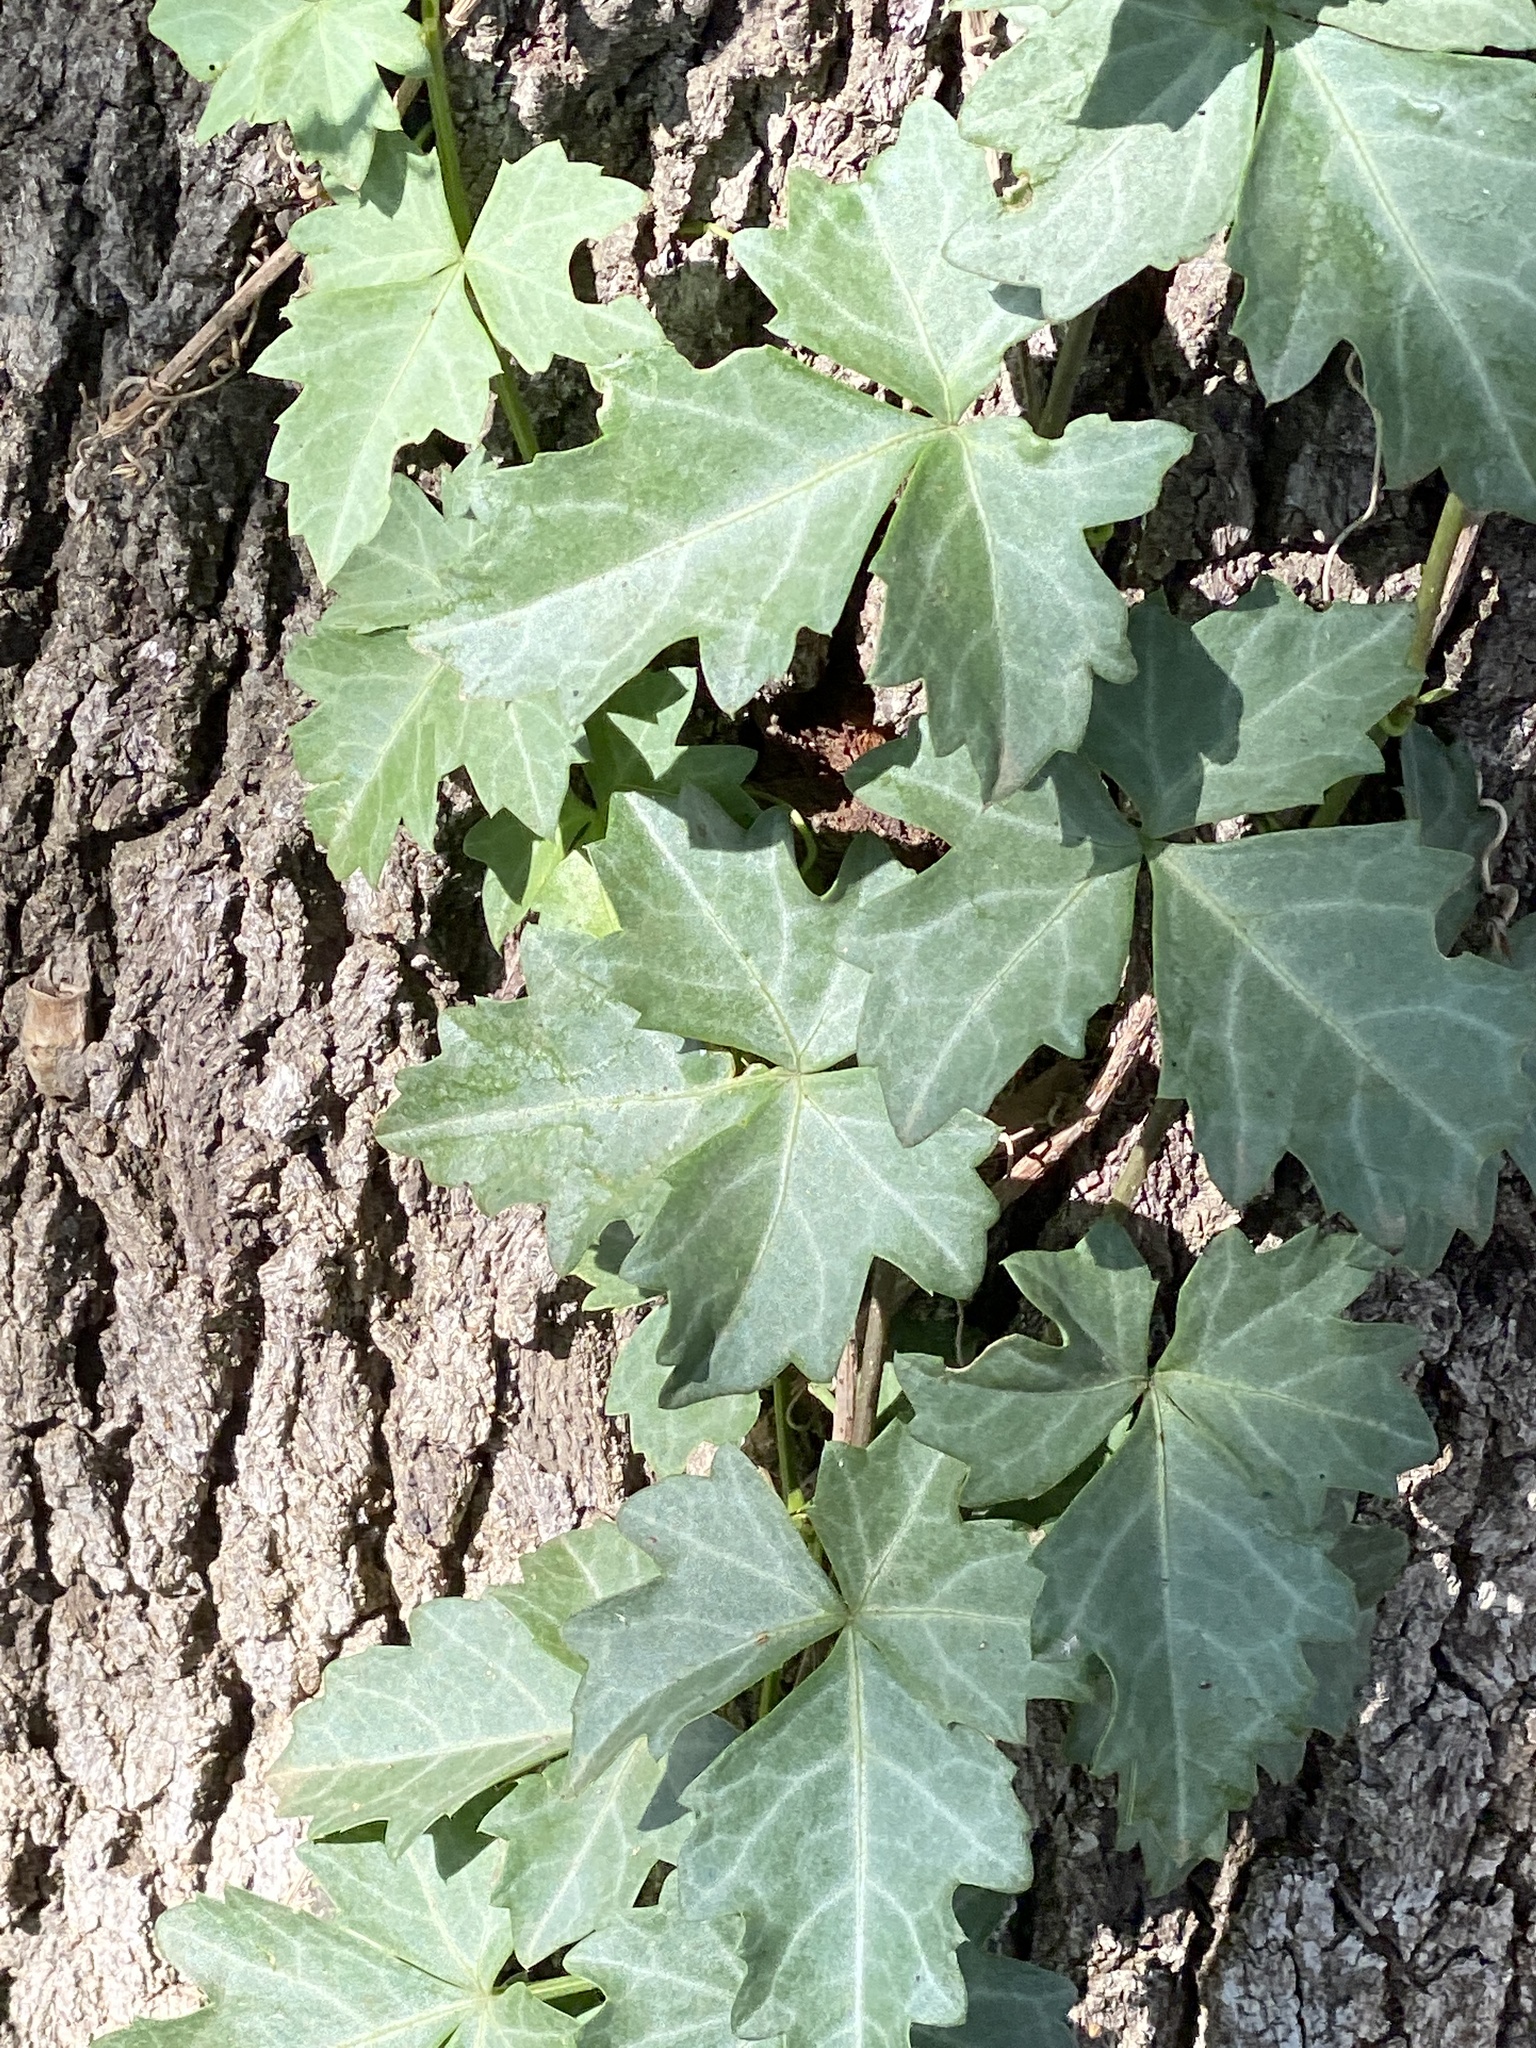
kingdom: Plantae
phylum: Tracheophyta
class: Magnoliopsida
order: Vitales
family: Vitaceae
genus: Cissus
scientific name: Cissus trifoliata
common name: Vine-sorrel
